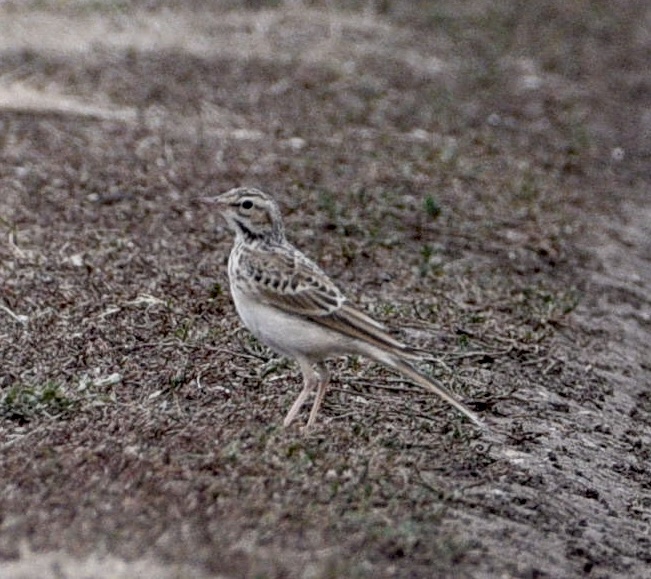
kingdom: Animalia
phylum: Chordata
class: Aves
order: Passeriformes
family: Motacillidae
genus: Anthus
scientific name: Anthus campestris
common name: Tawny pipit
